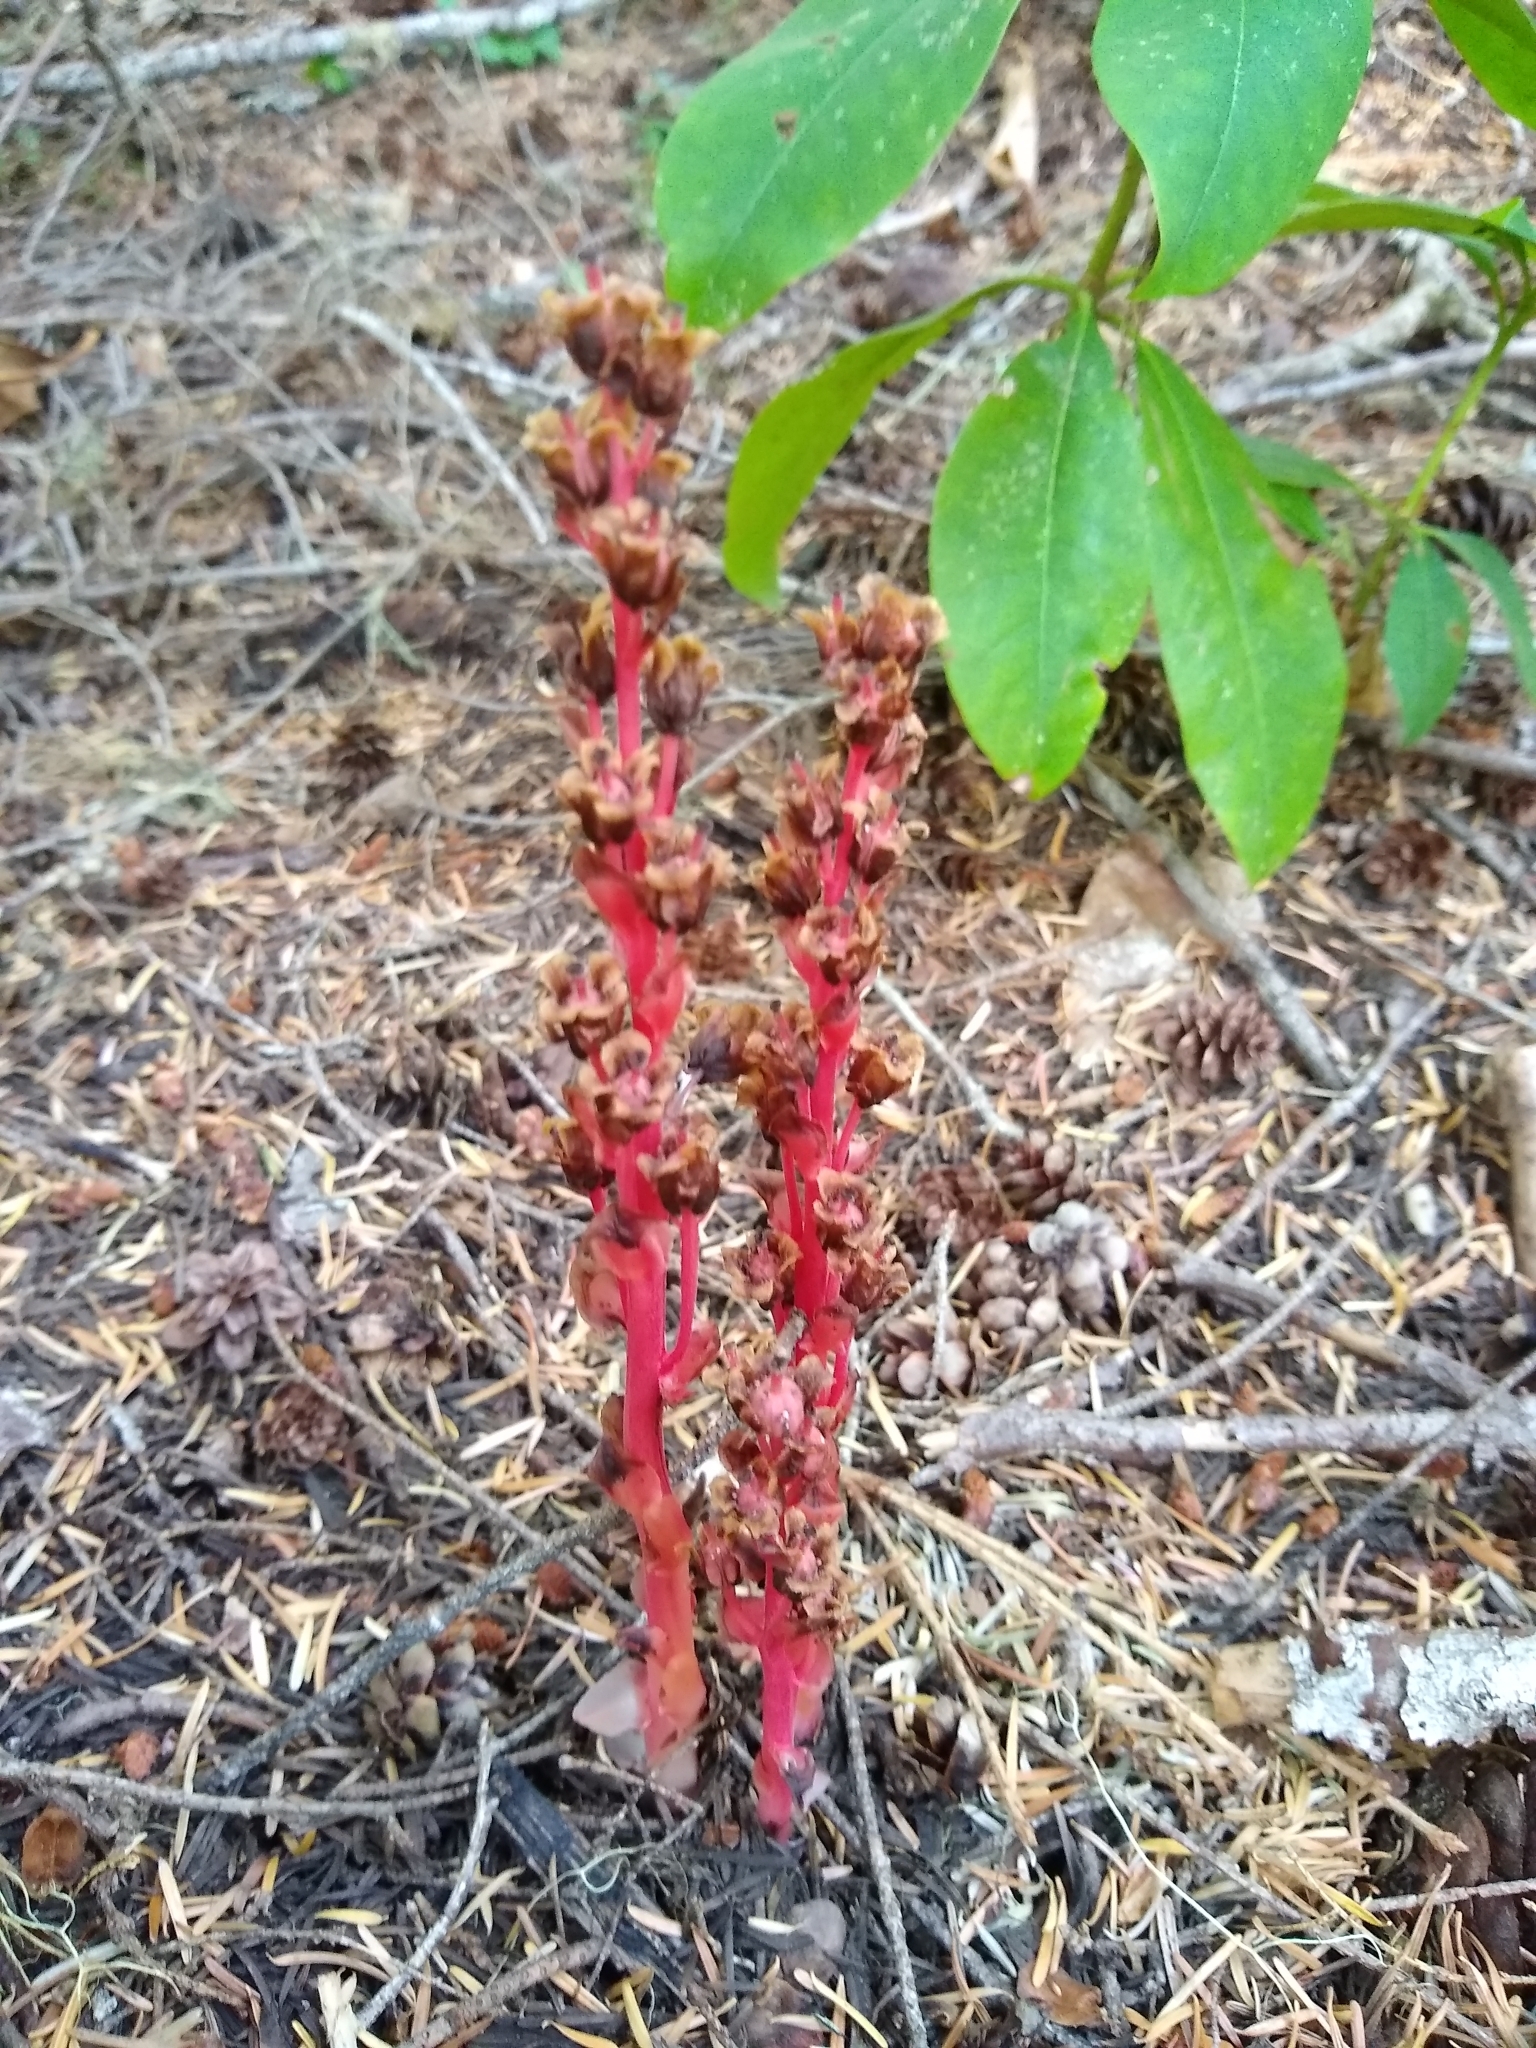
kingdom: Plantae
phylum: Tracheophyta
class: Magnoliopsida
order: Ericales
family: Ericaceae
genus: Hypopitys
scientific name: Hypopitys monotropa
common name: Yellow bird's-nest
